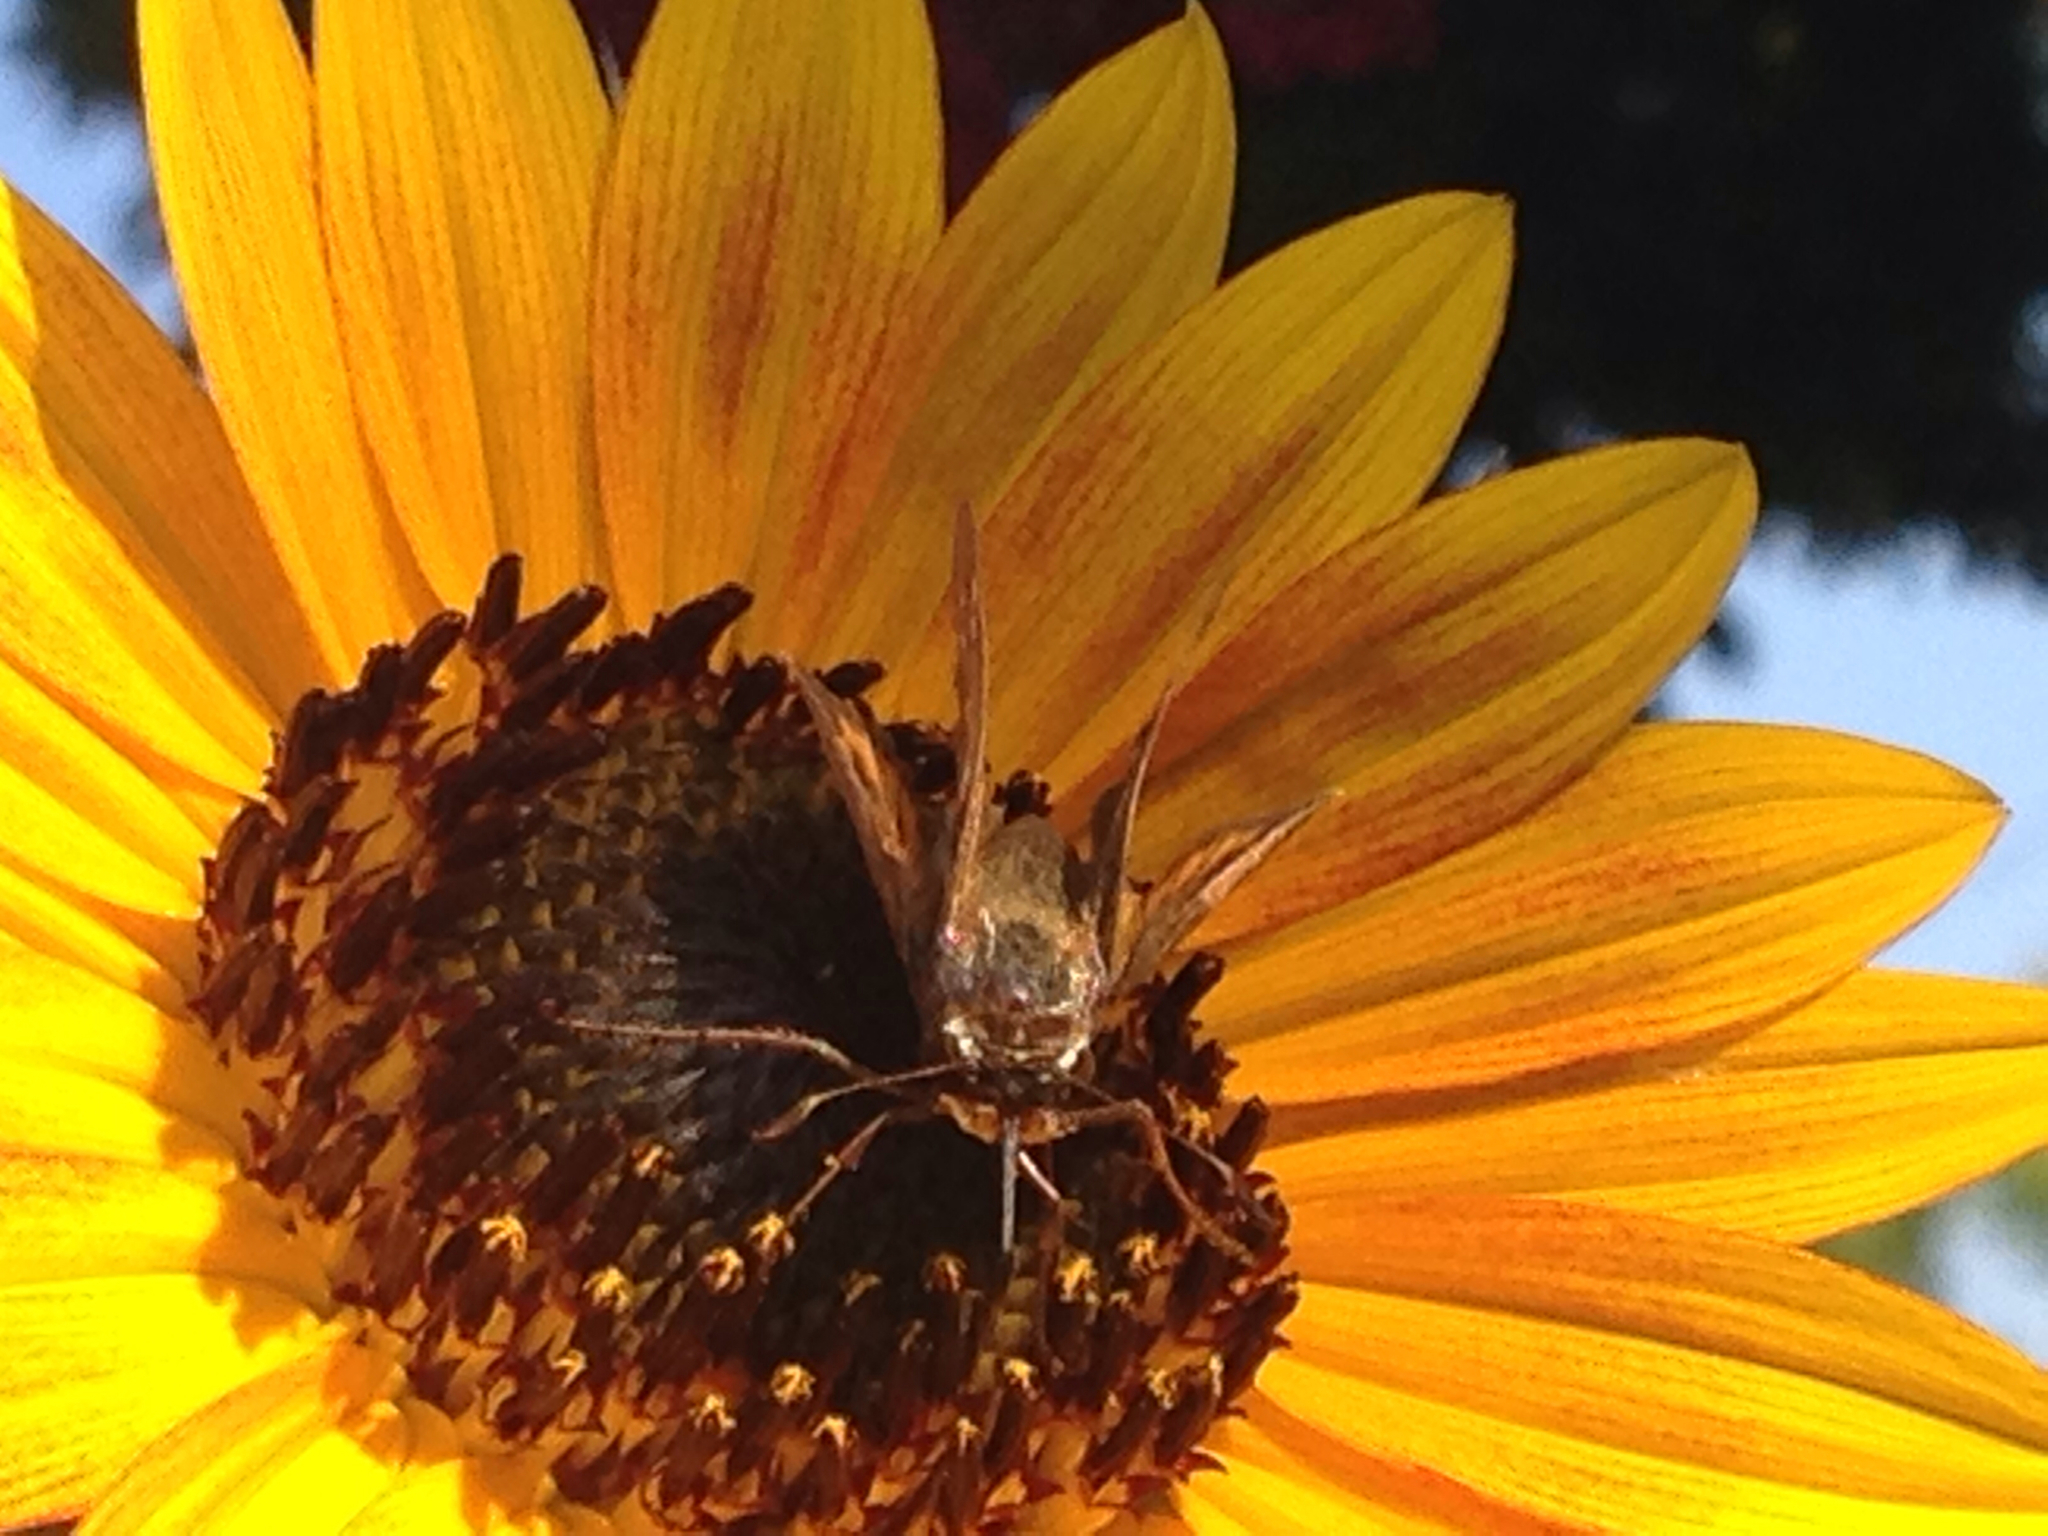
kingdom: Animalia
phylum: Arthropoda
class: Insecta
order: Lepidoptera
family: Hesperiidae
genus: Atalopedes
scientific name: Atalopedes
